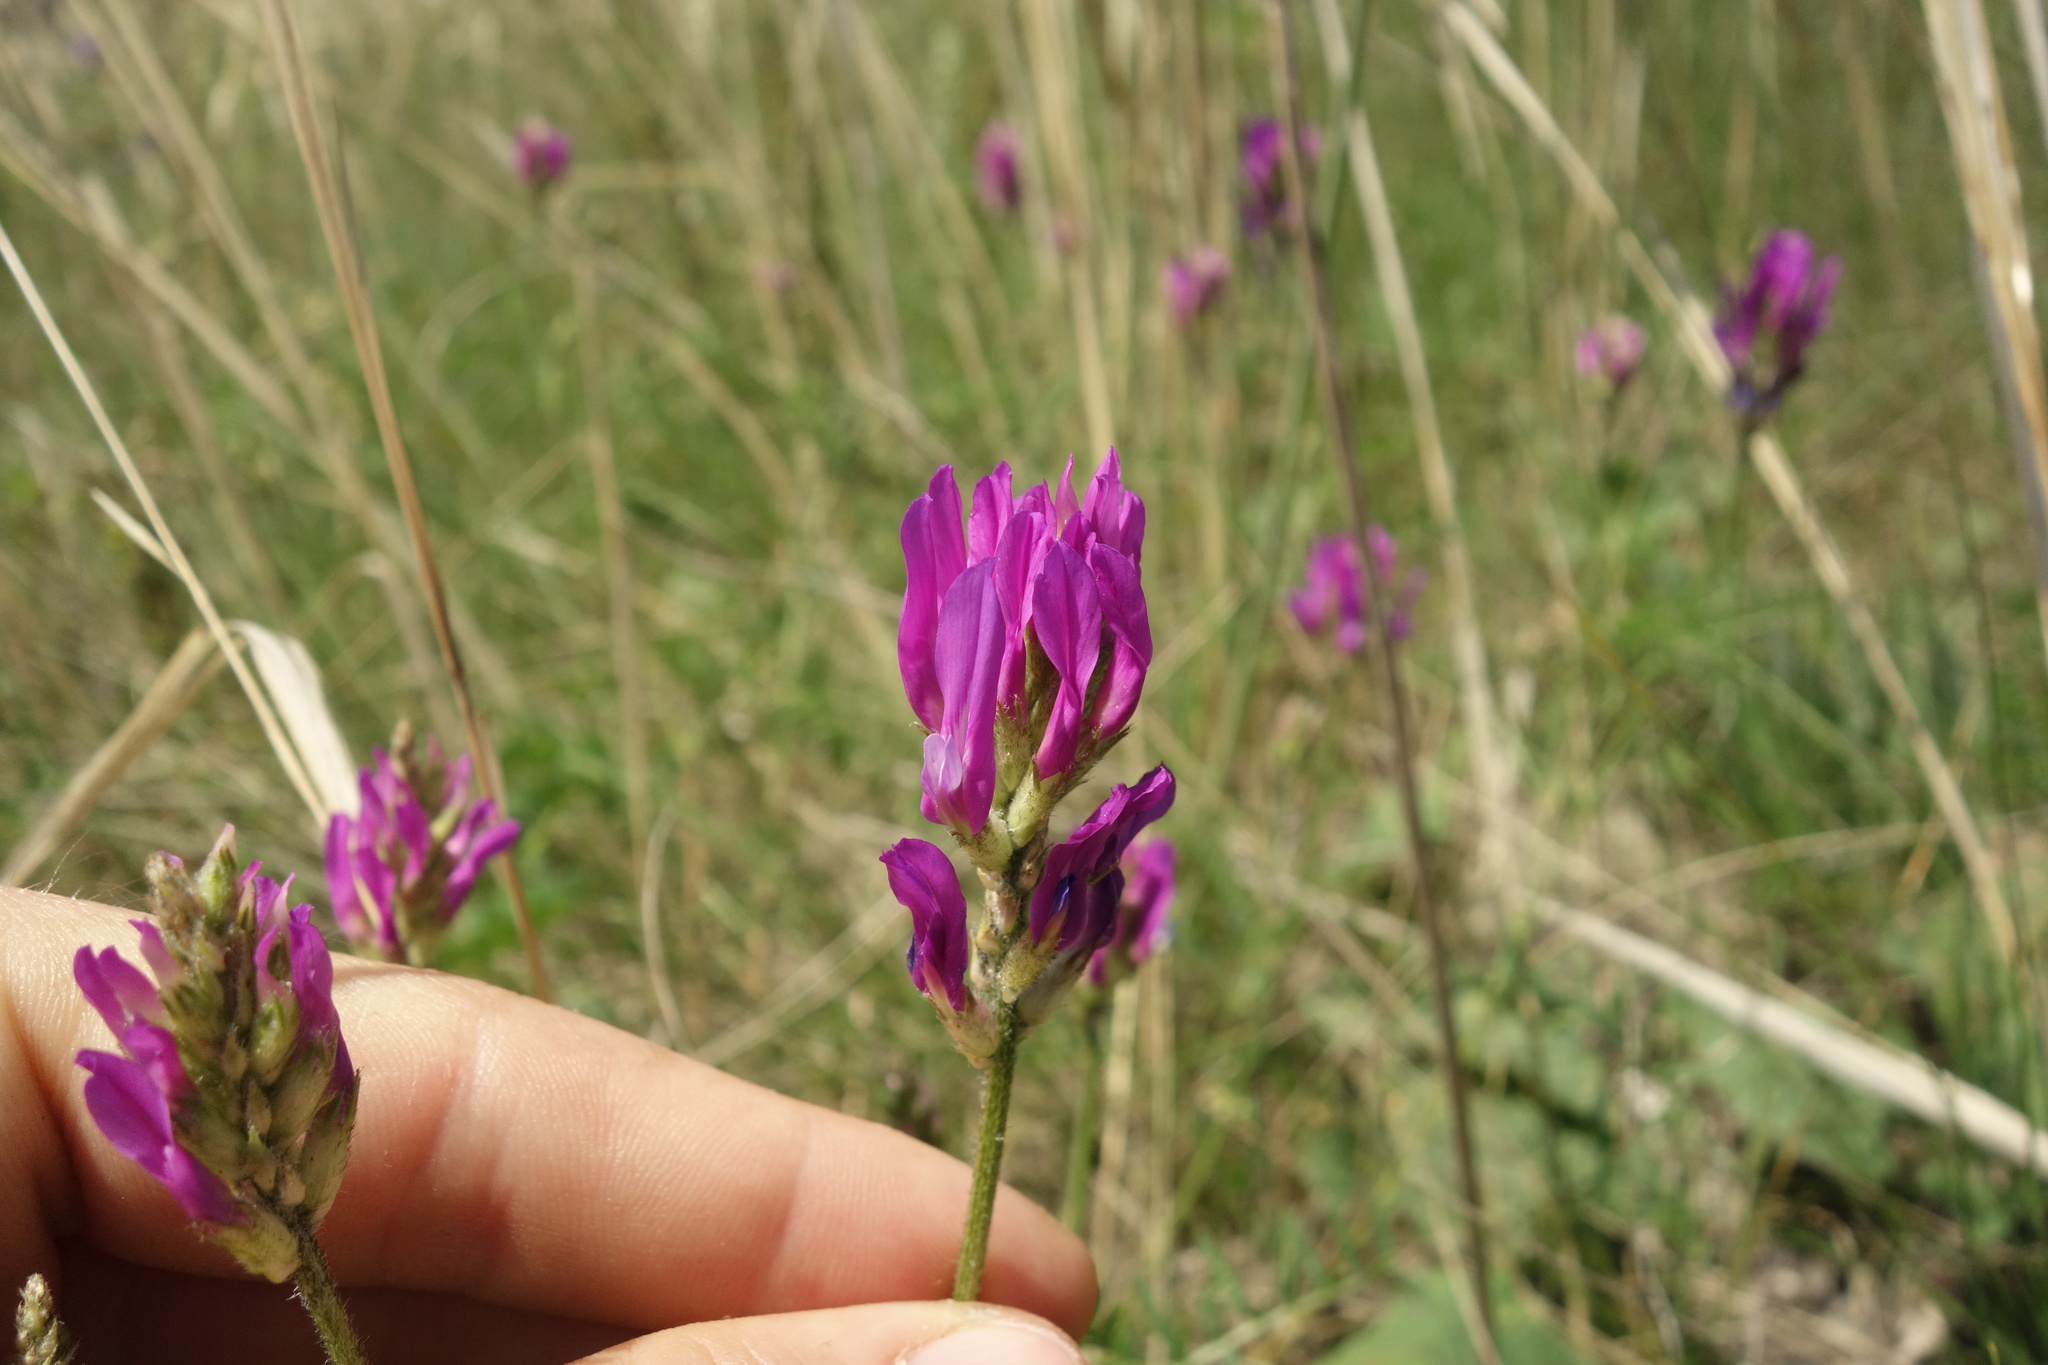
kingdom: Plantae
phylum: Tracheophyta
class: Magnoliopsida
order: Fabales
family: Fabaceae
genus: Astragalus
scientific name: Astragalus onobrychis
